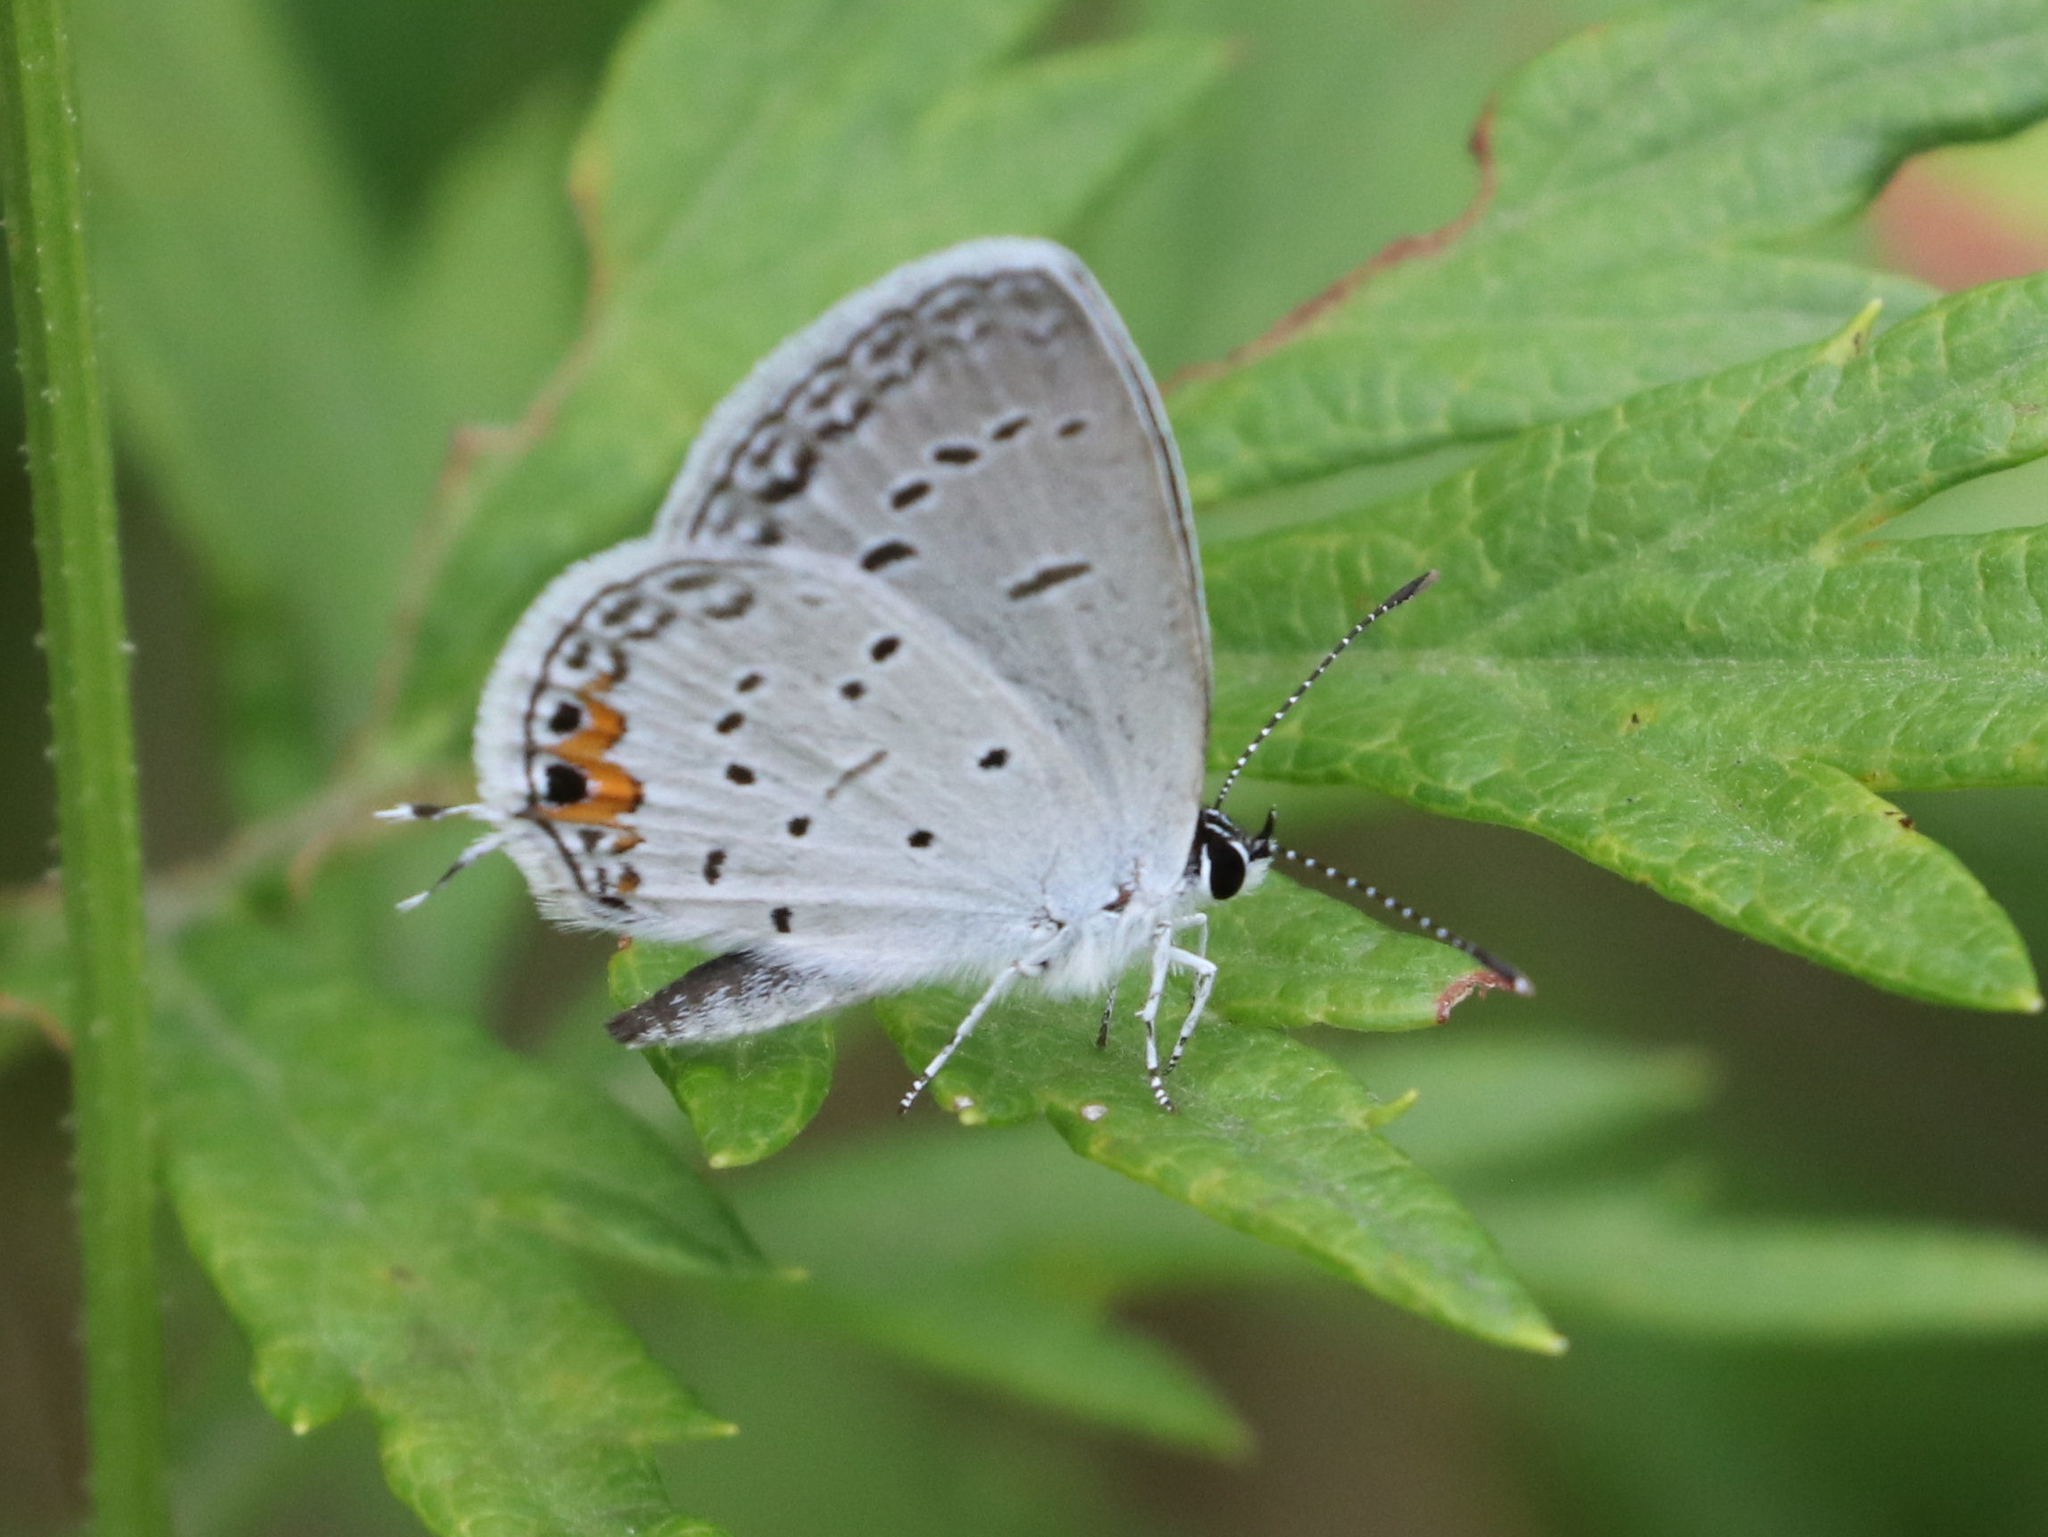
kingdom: Animalia
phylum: Arthropoda
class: Insecta
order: Lepidoptera
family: Lycaenidae
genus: Elkalyce
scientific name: Elkalyce comyntas
